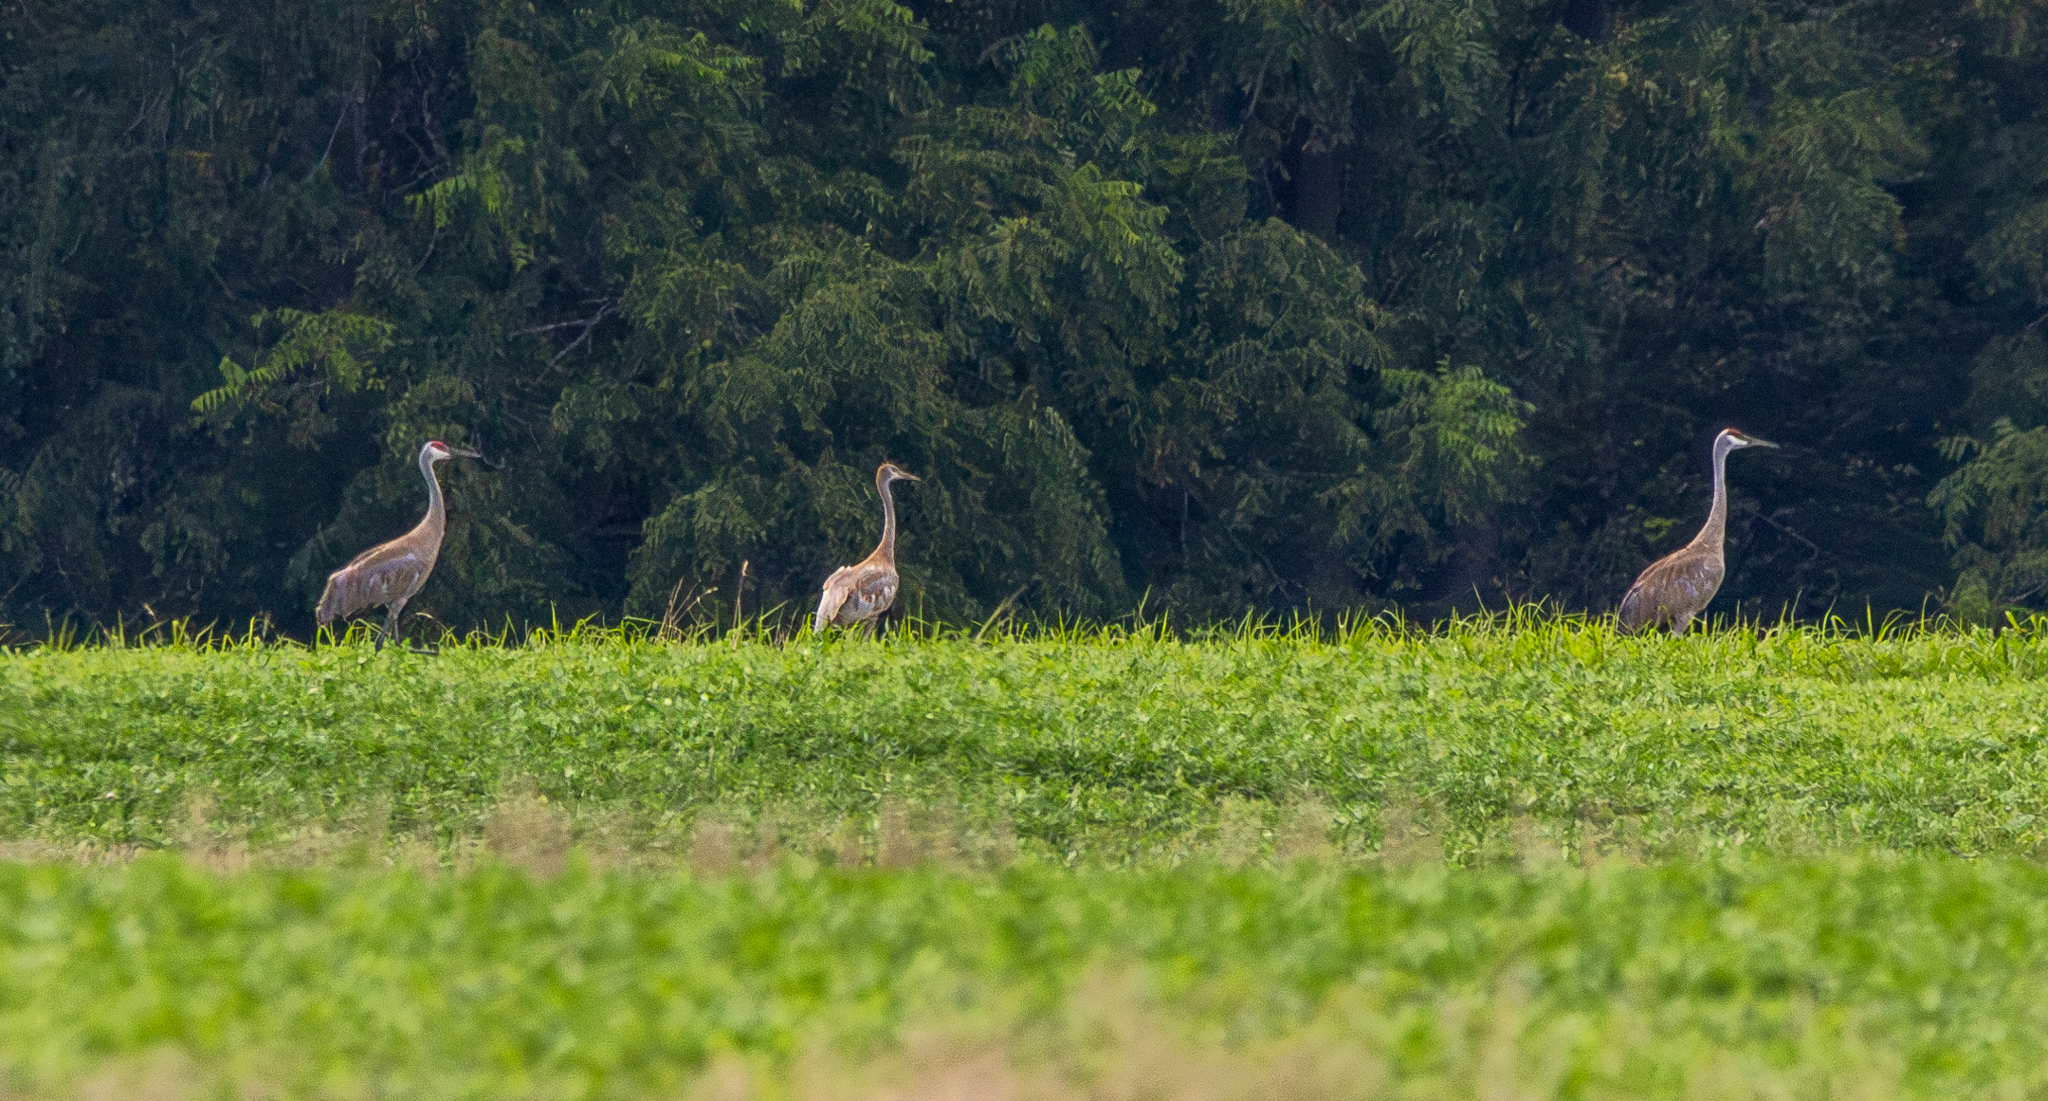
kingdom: Animalia
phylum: Chordata
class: Aves
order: Gruiformes
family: Gruidae
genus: Grus
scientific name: Grus canadensis
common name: Sandhill crane
